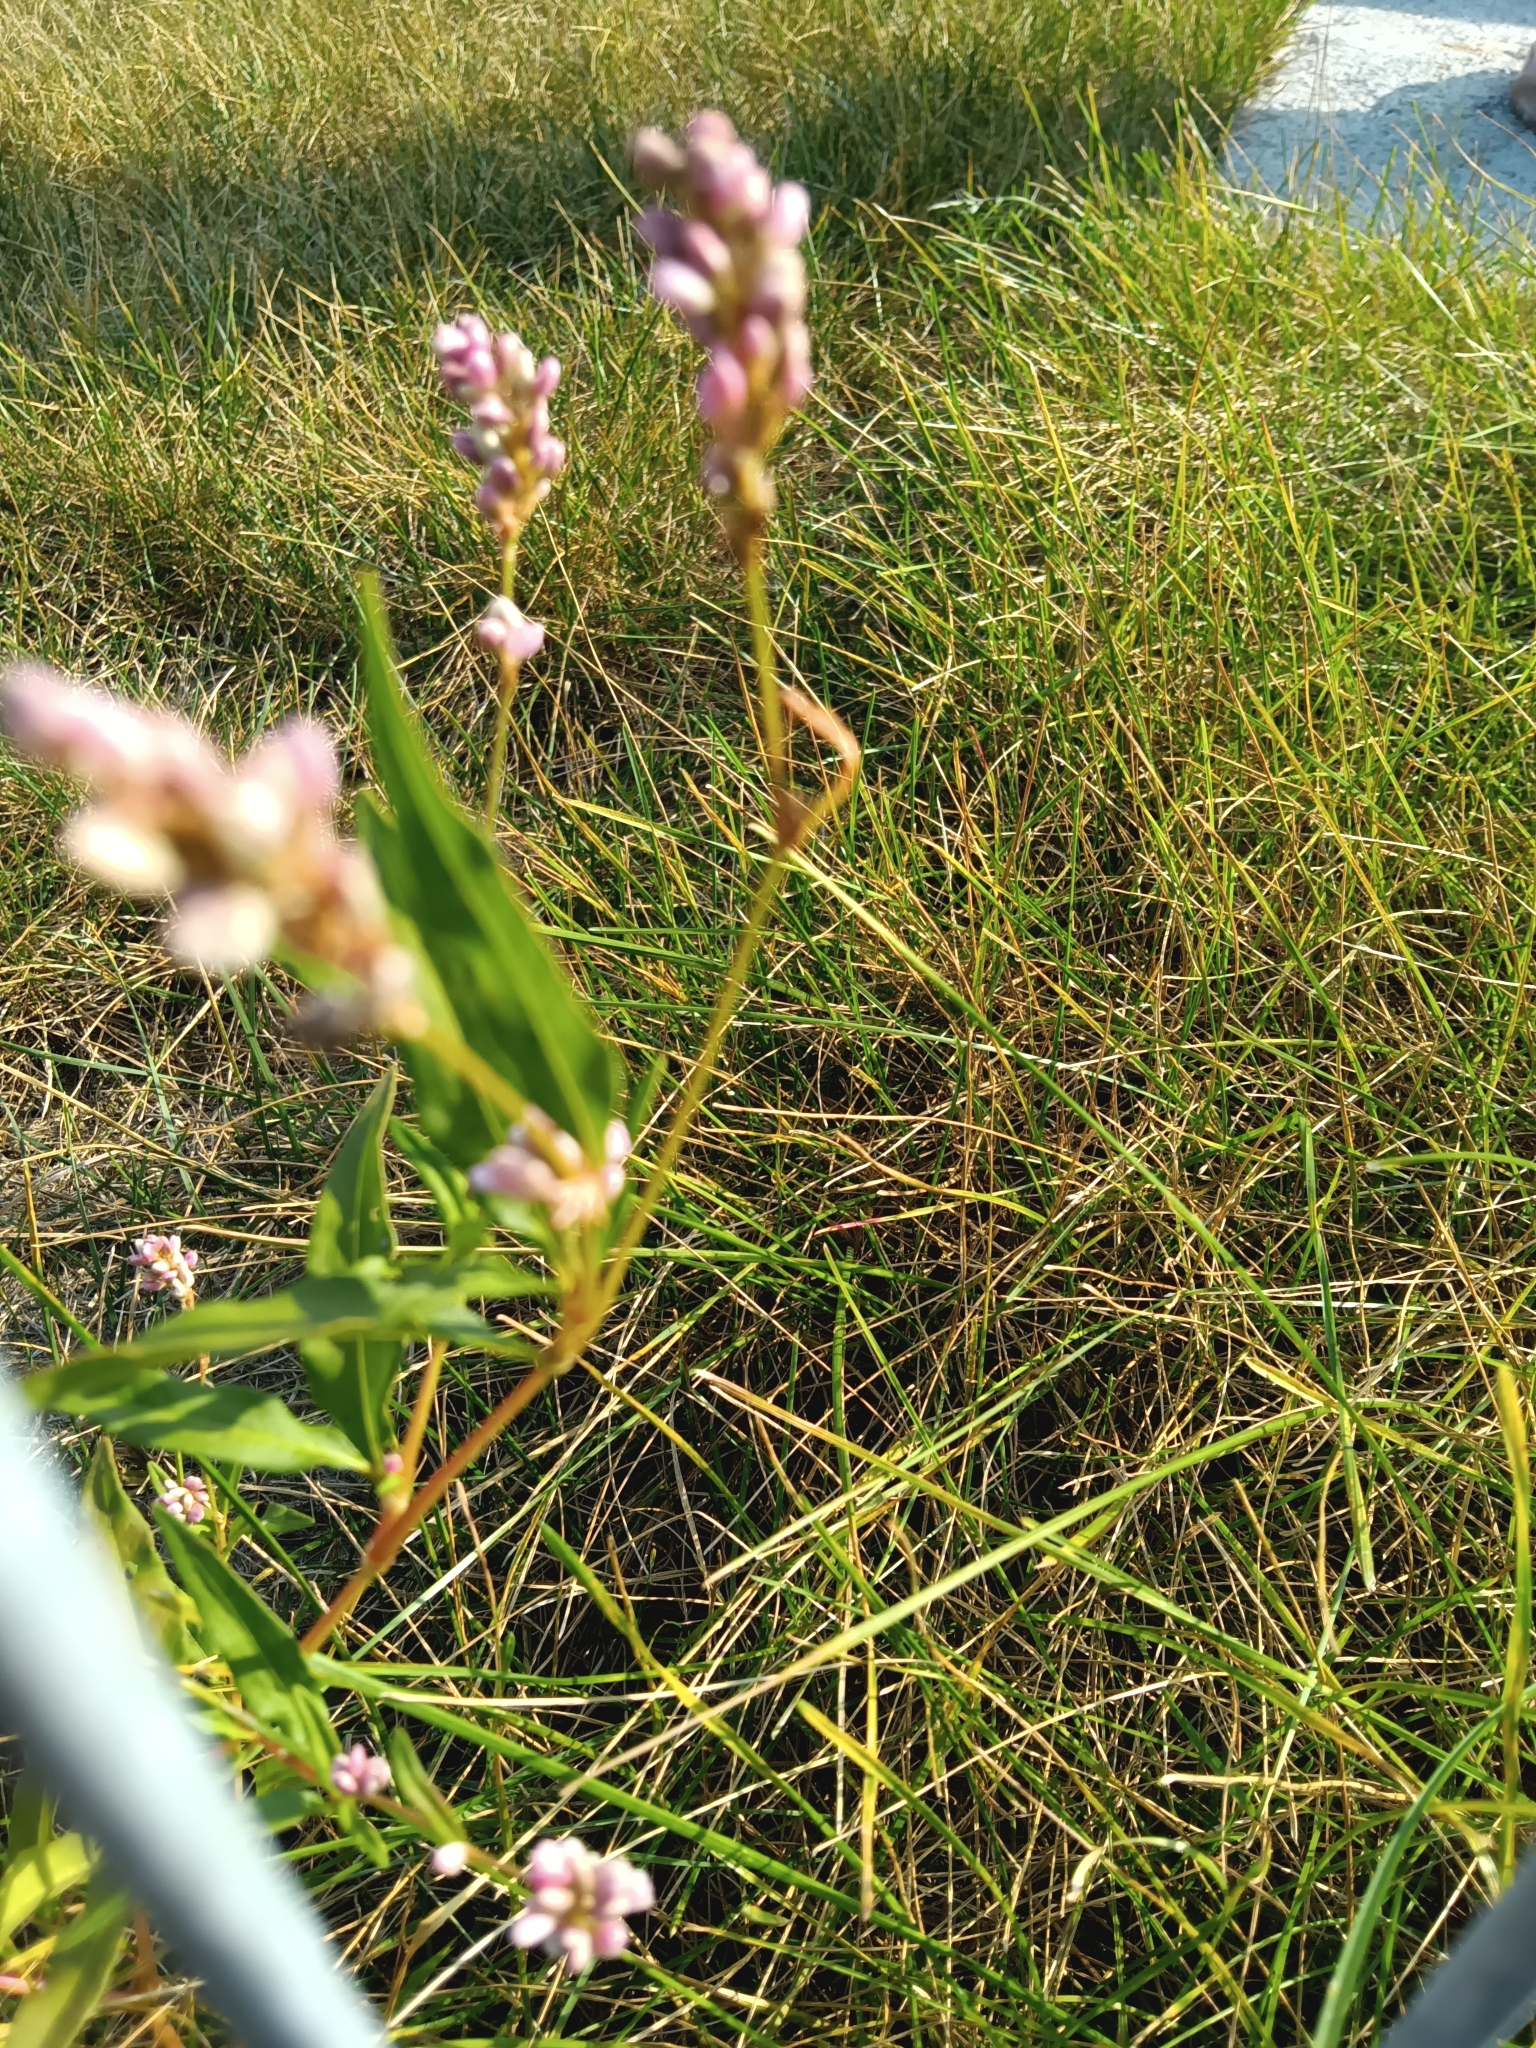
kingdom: Plantae
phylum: Tracheophyta
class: Magnoliopsida
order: Caryophyllales
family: Polygonaceae
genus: Persicaria
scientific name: Persicaria pensylvanica
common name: Pinkweed
